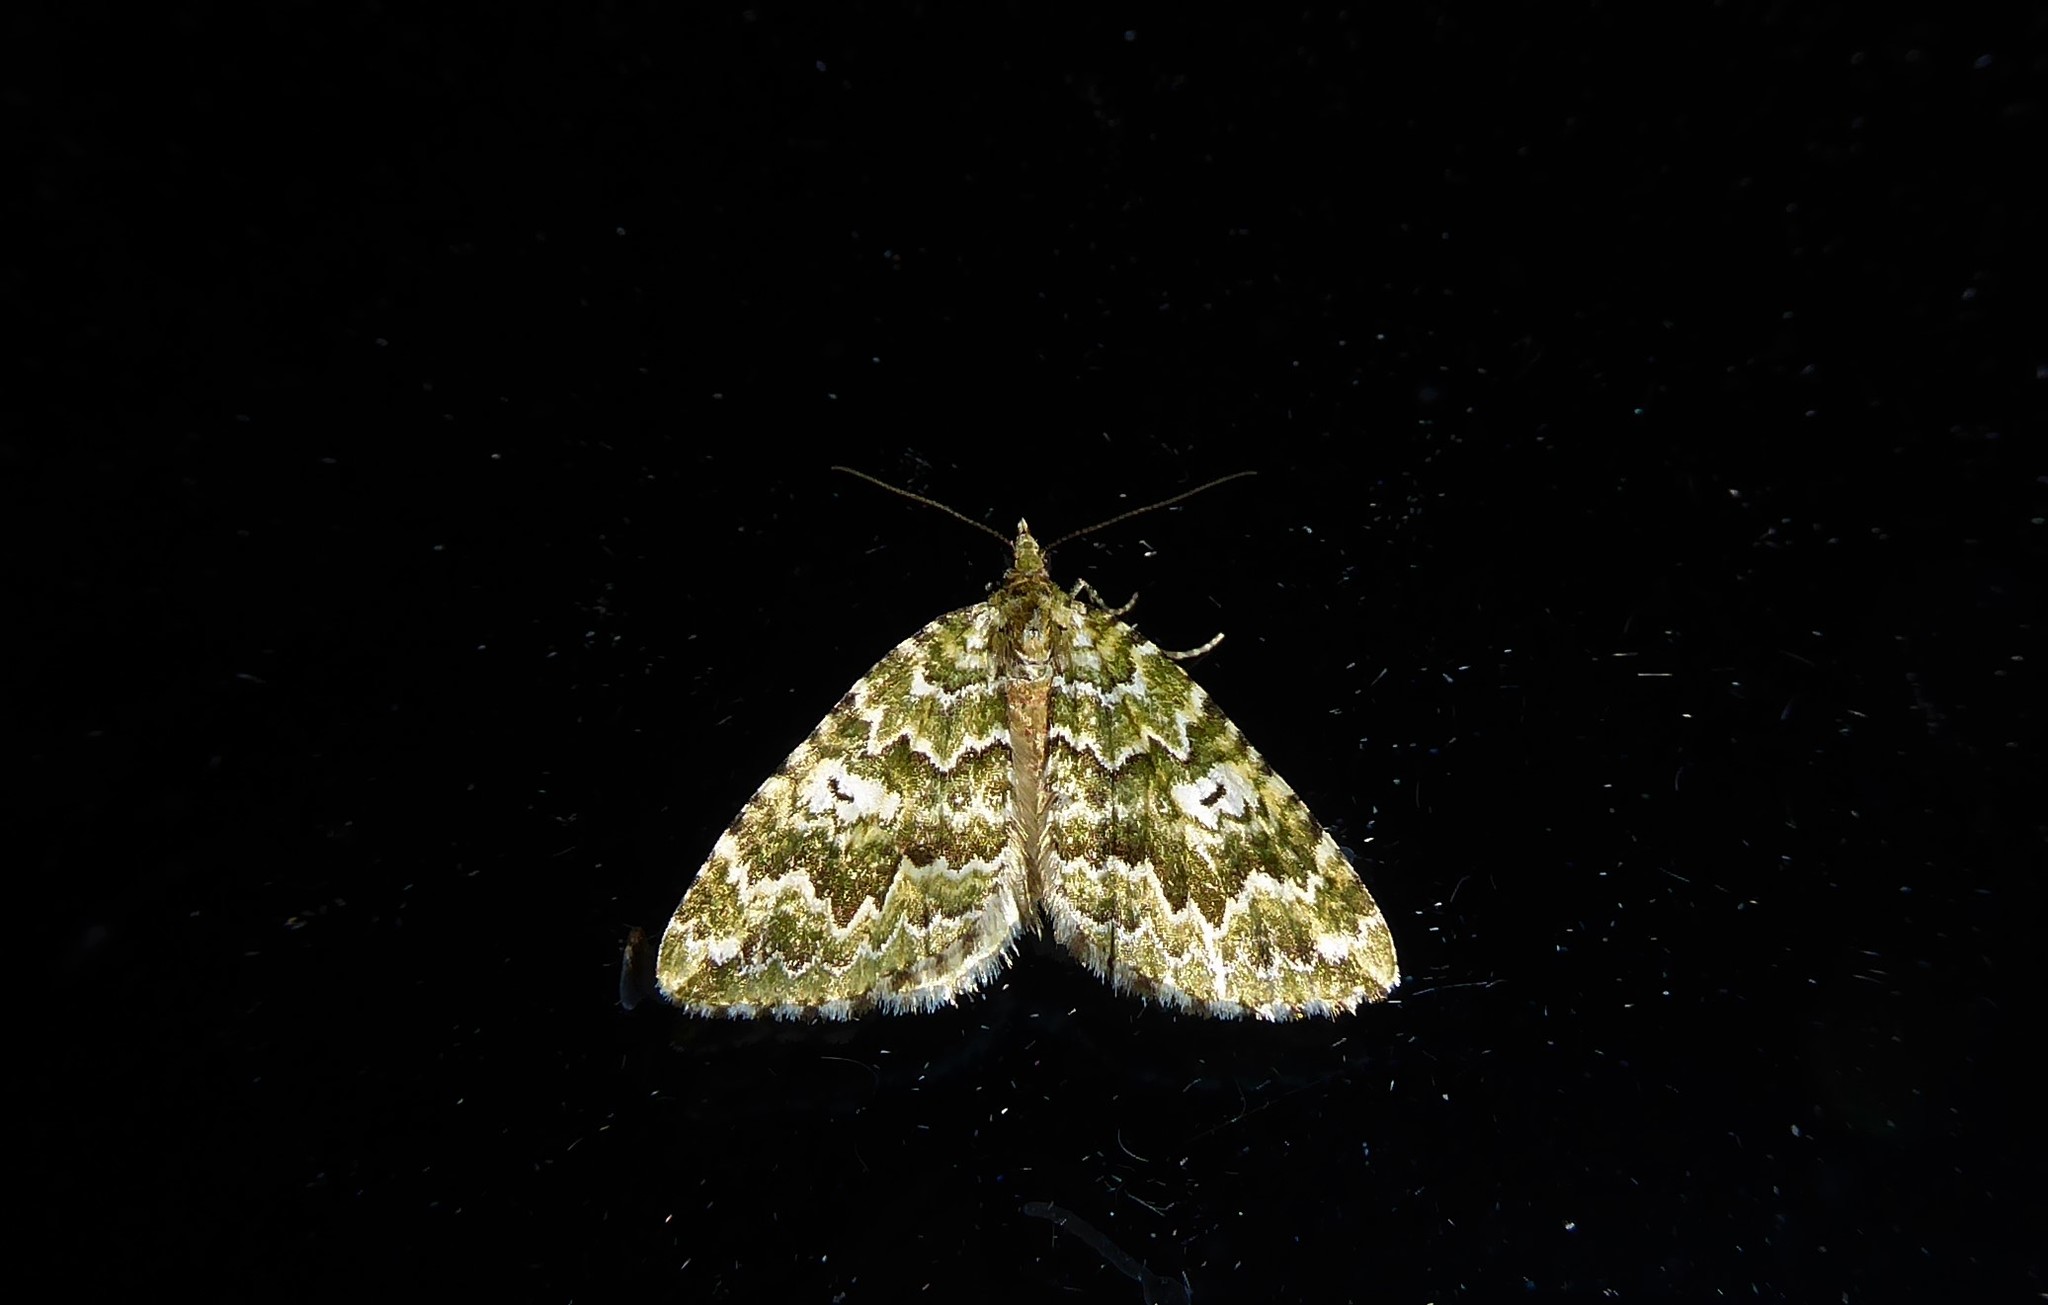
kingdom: Animalia
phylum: Arthropoda
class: Insecta
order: Lepidoptera
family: Geometridae
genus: Asaphodes
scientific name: Asaphodes beata
